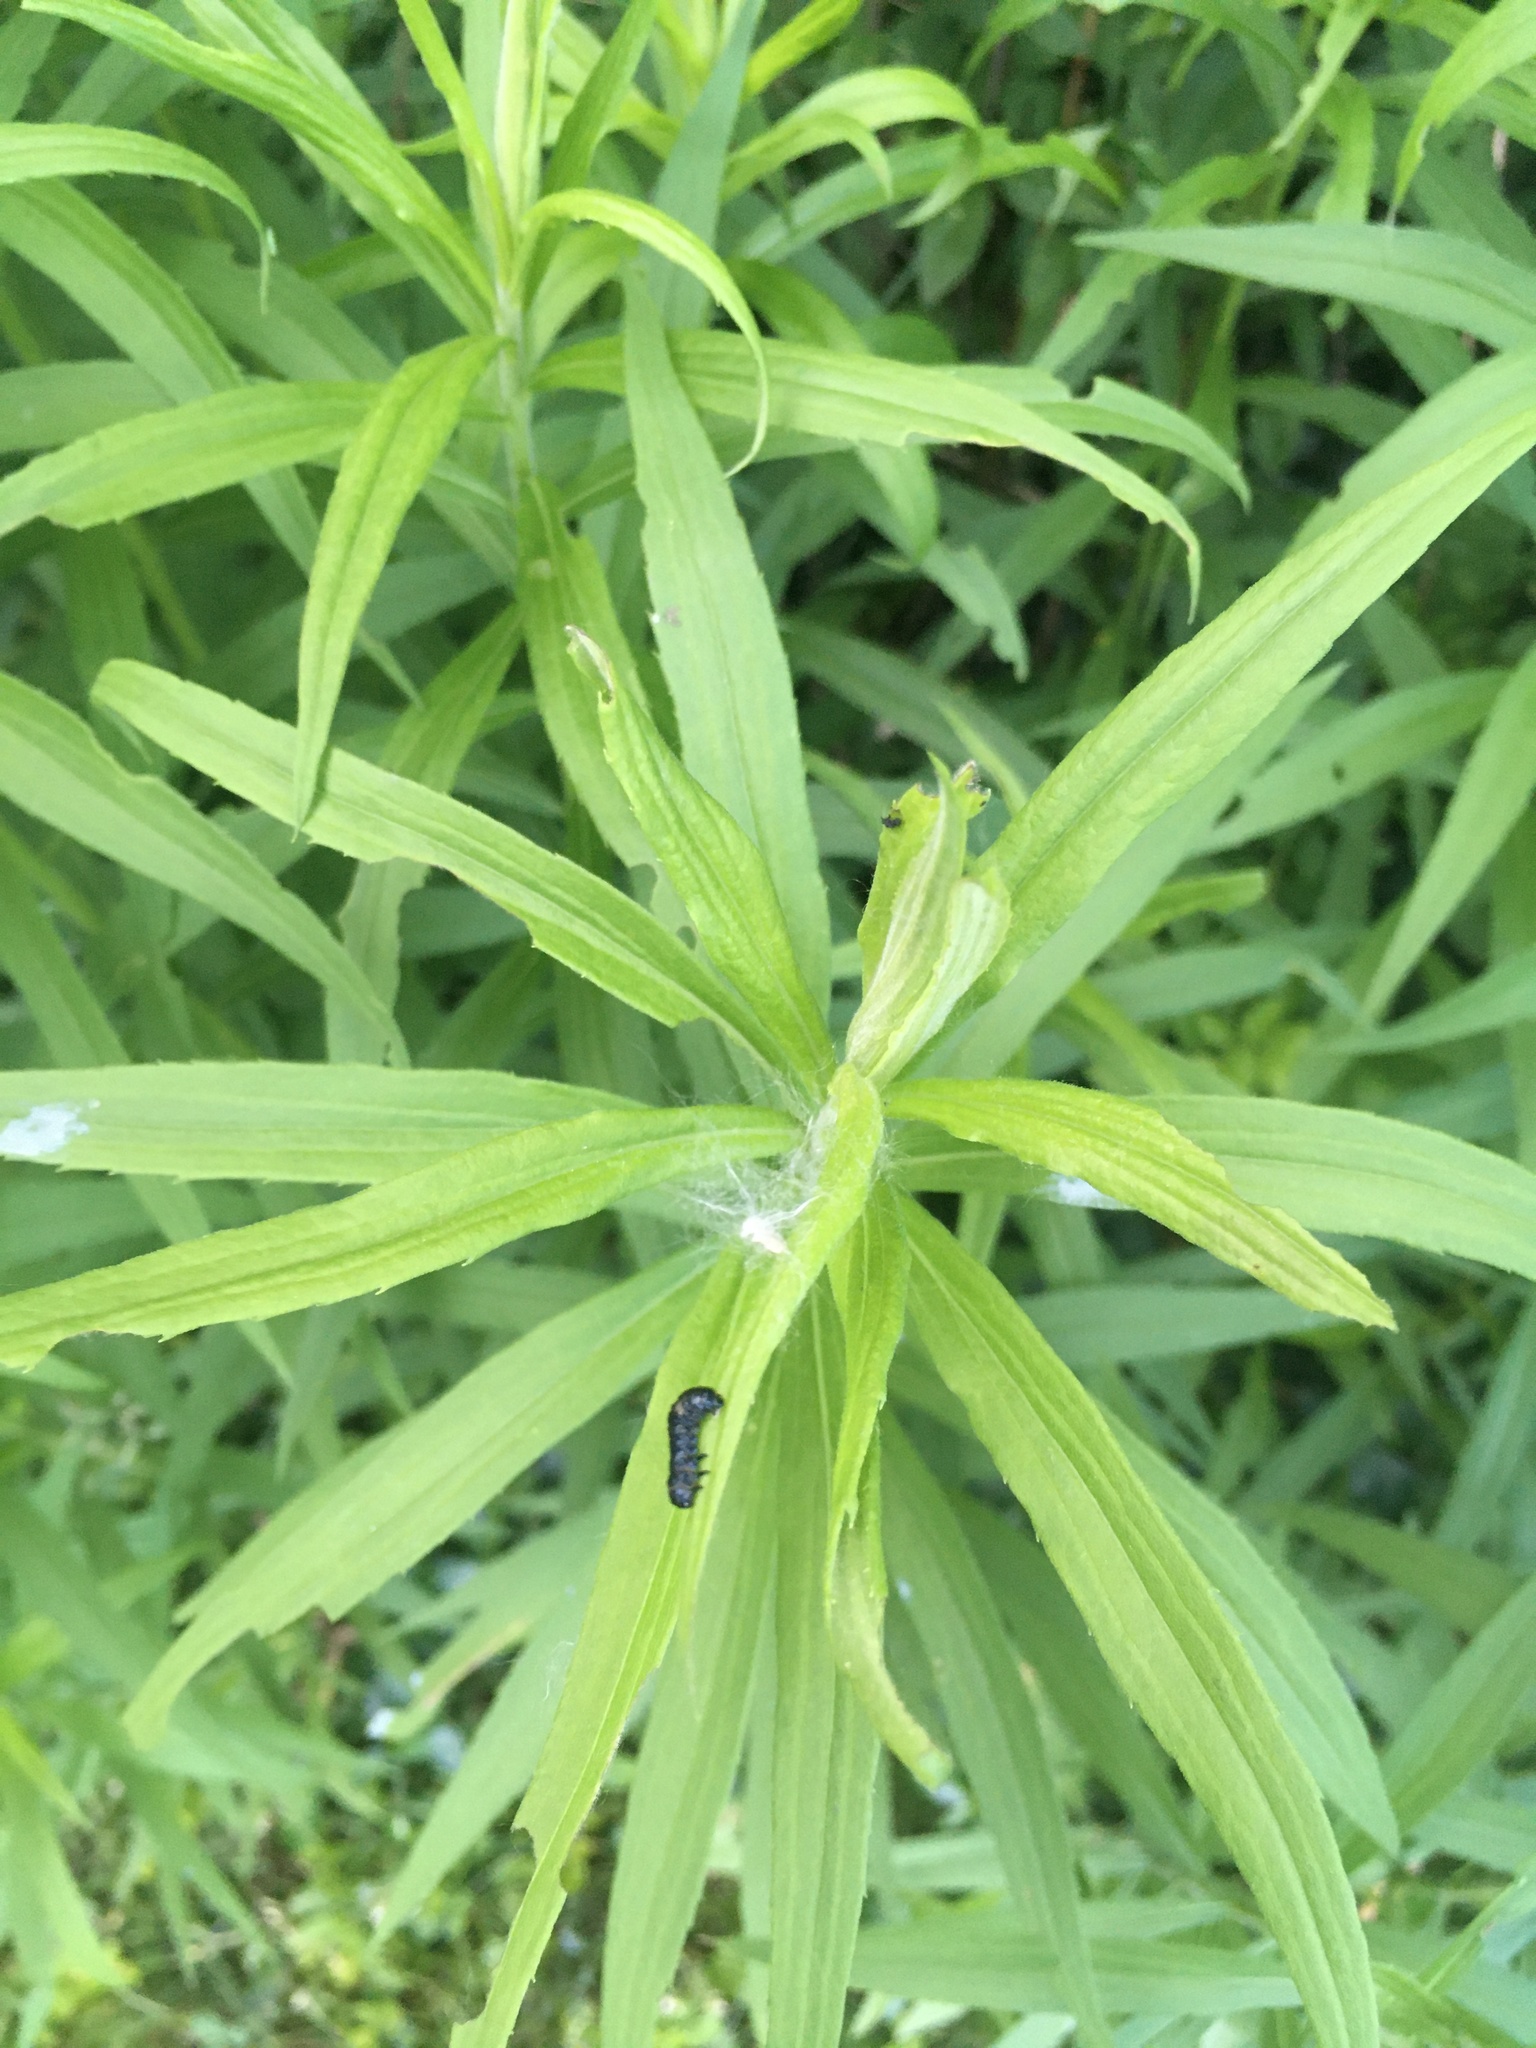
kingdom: Animalia
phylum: Arthropoda
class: Insecta
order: Coleoptera
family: Chrysomelidae
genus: Trirhabda
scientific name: Trirhabda canadensis
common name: Goldenrod leaf beetle
